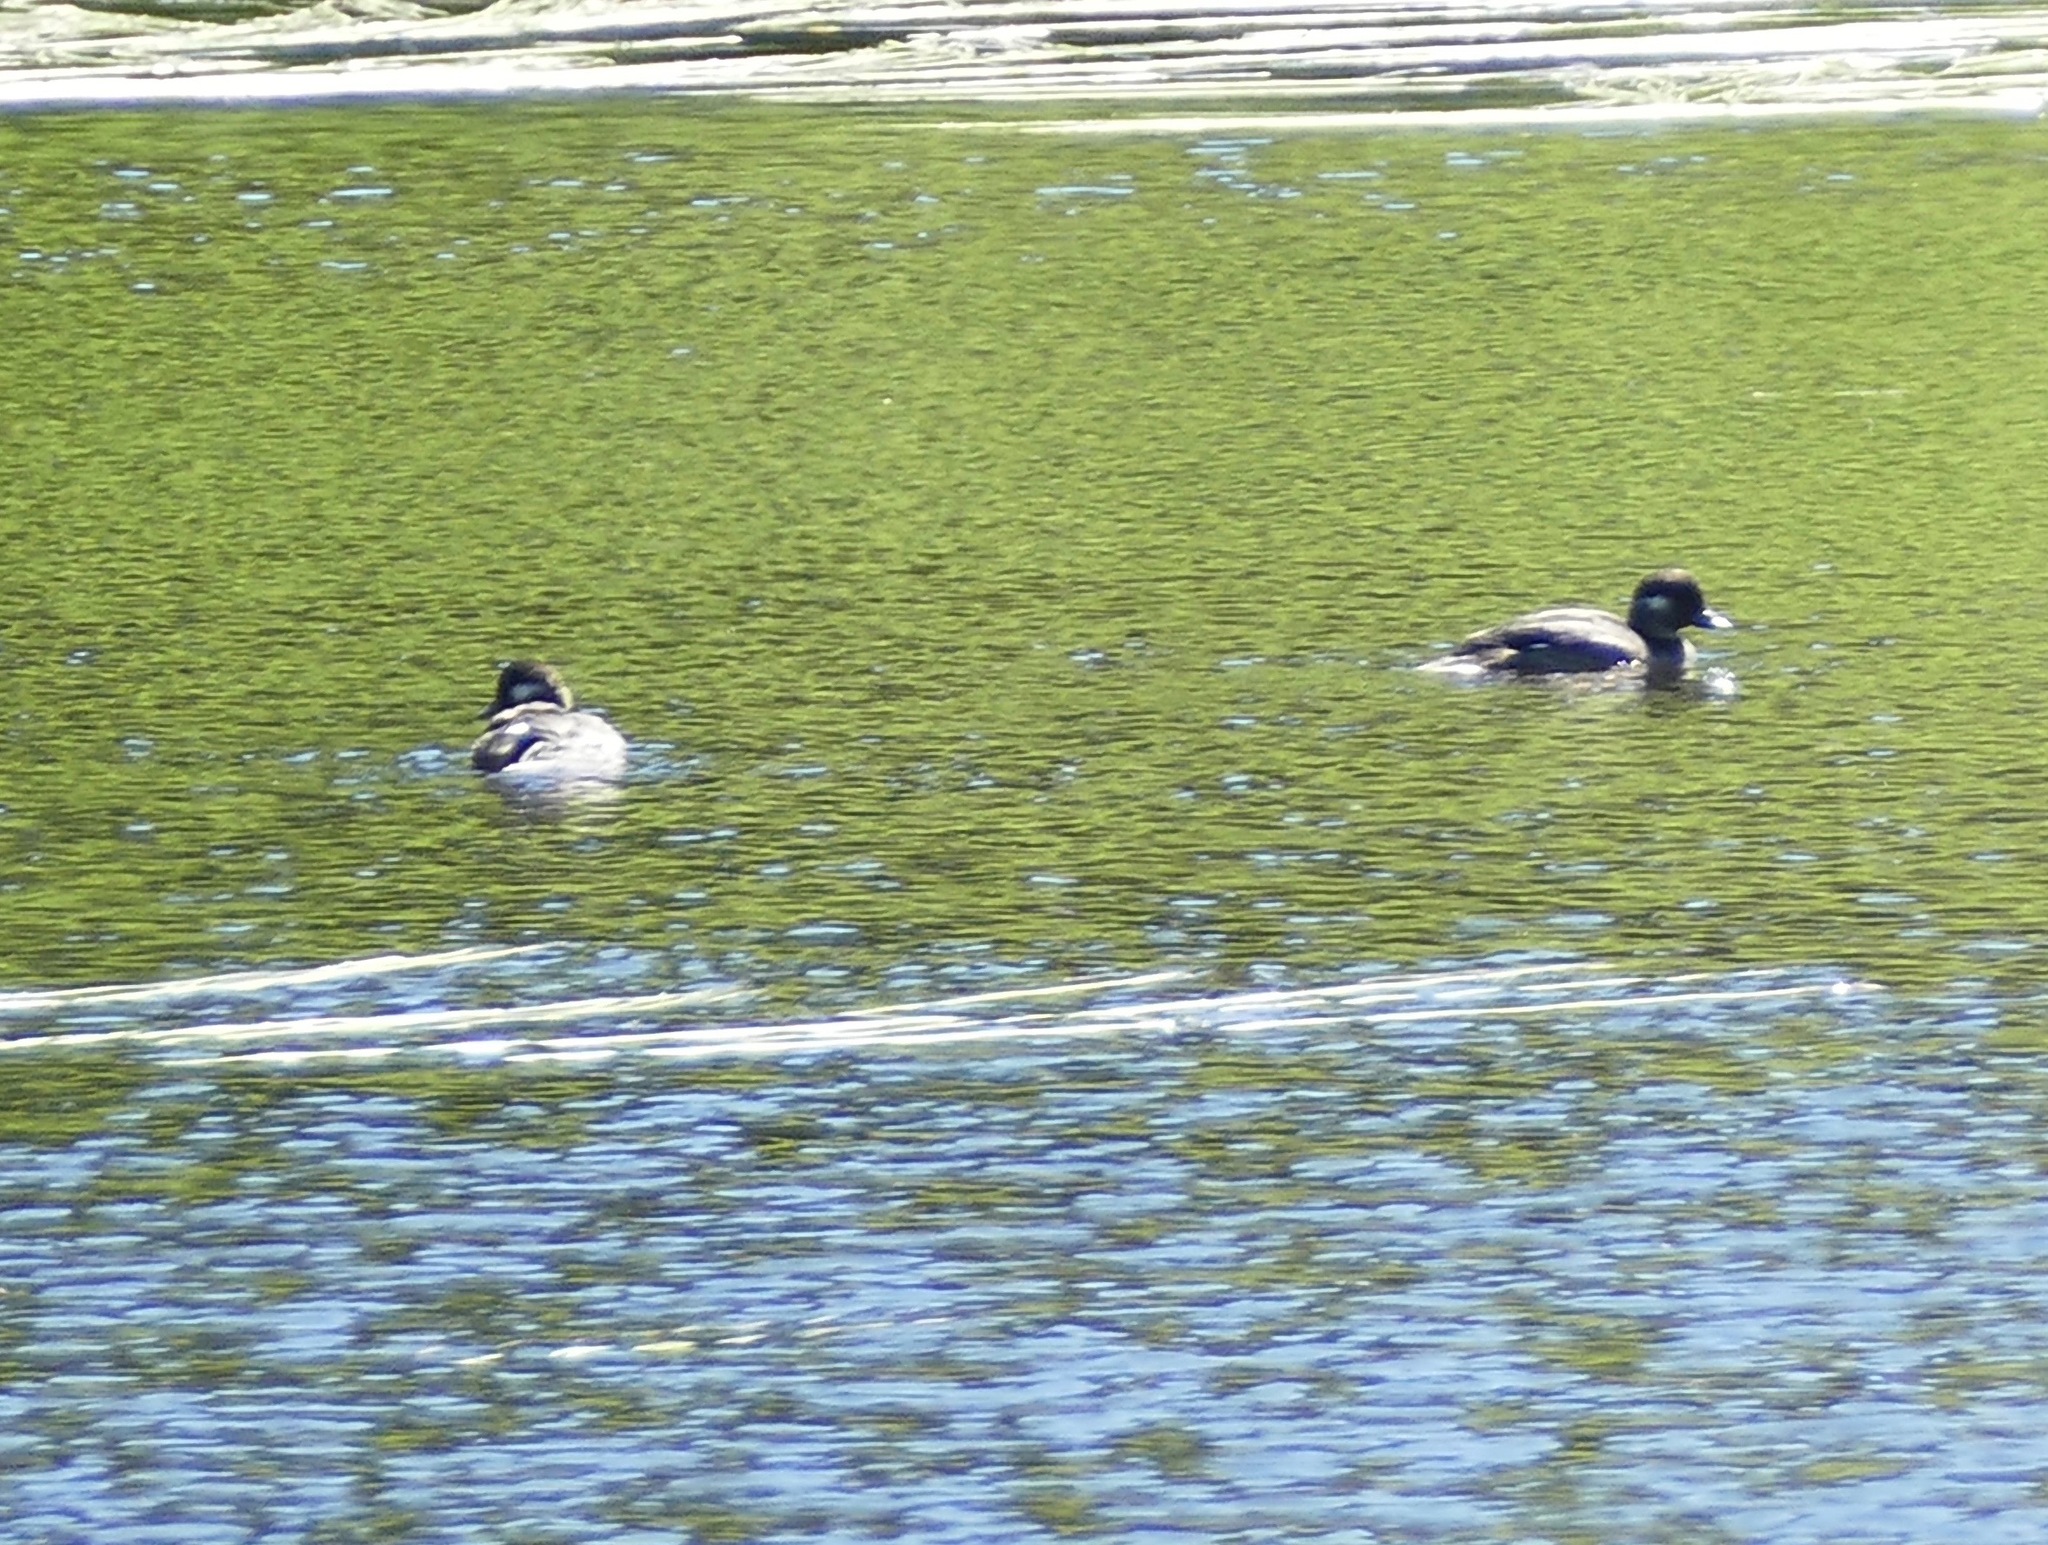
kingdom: Animalia
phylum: Chordata
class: Aves
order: Anseriformes
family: Anatidae
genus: Bucephala
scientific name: Bucephala albeola
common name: Bufflehead
